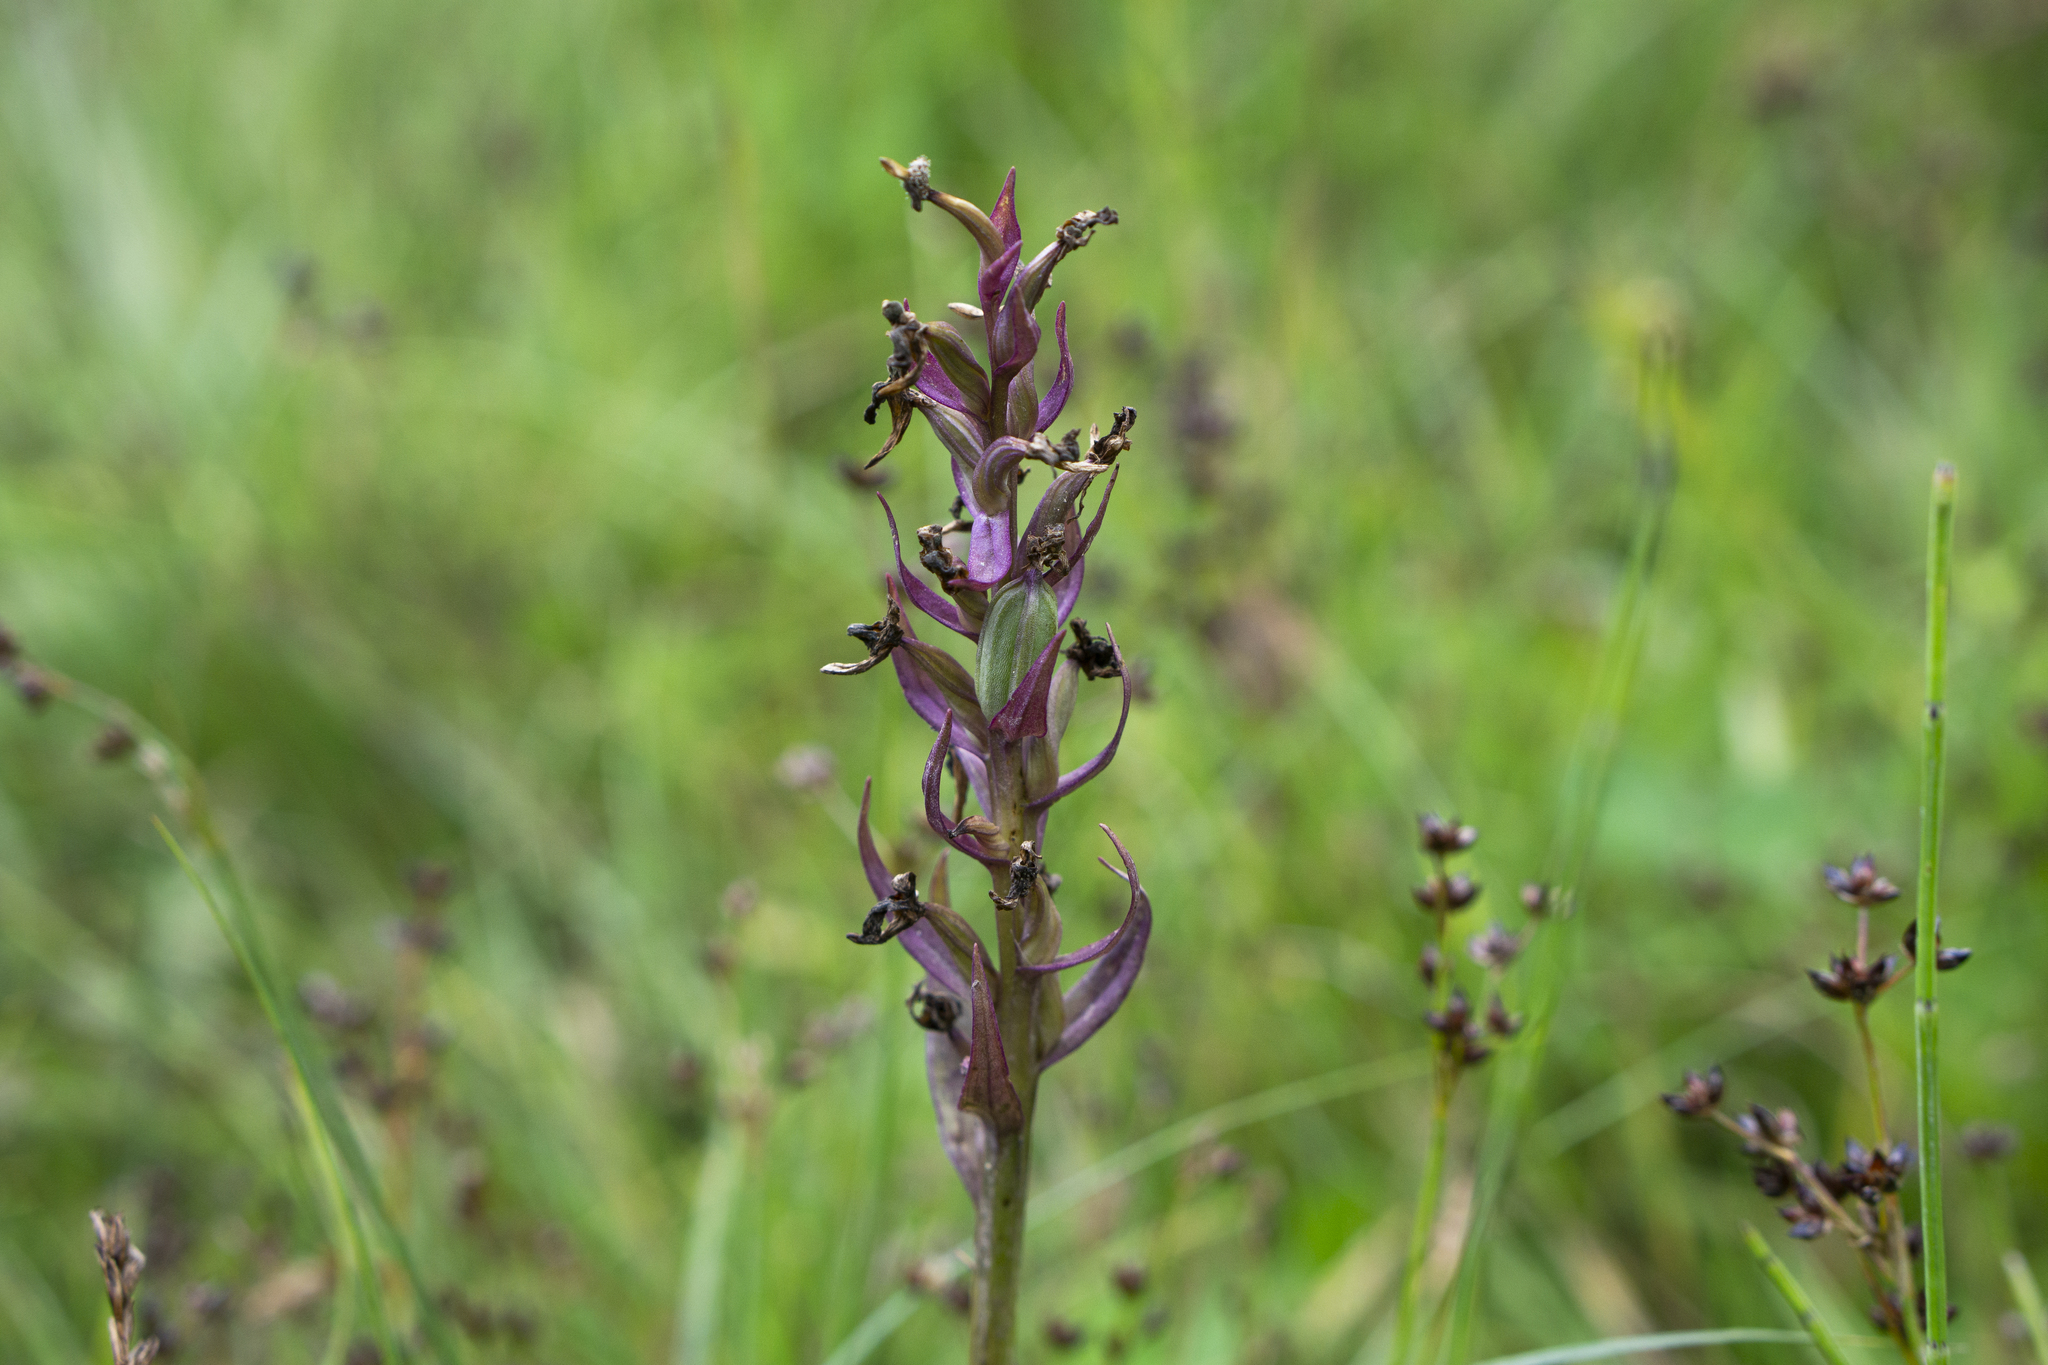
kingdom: Plantae
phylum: Tracheophyta
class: Liliopsida
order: Asparagales
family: Orchidaceae
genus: Dactylorhiza
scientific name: Dactylorhiza majalis
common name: Marsh orchid
